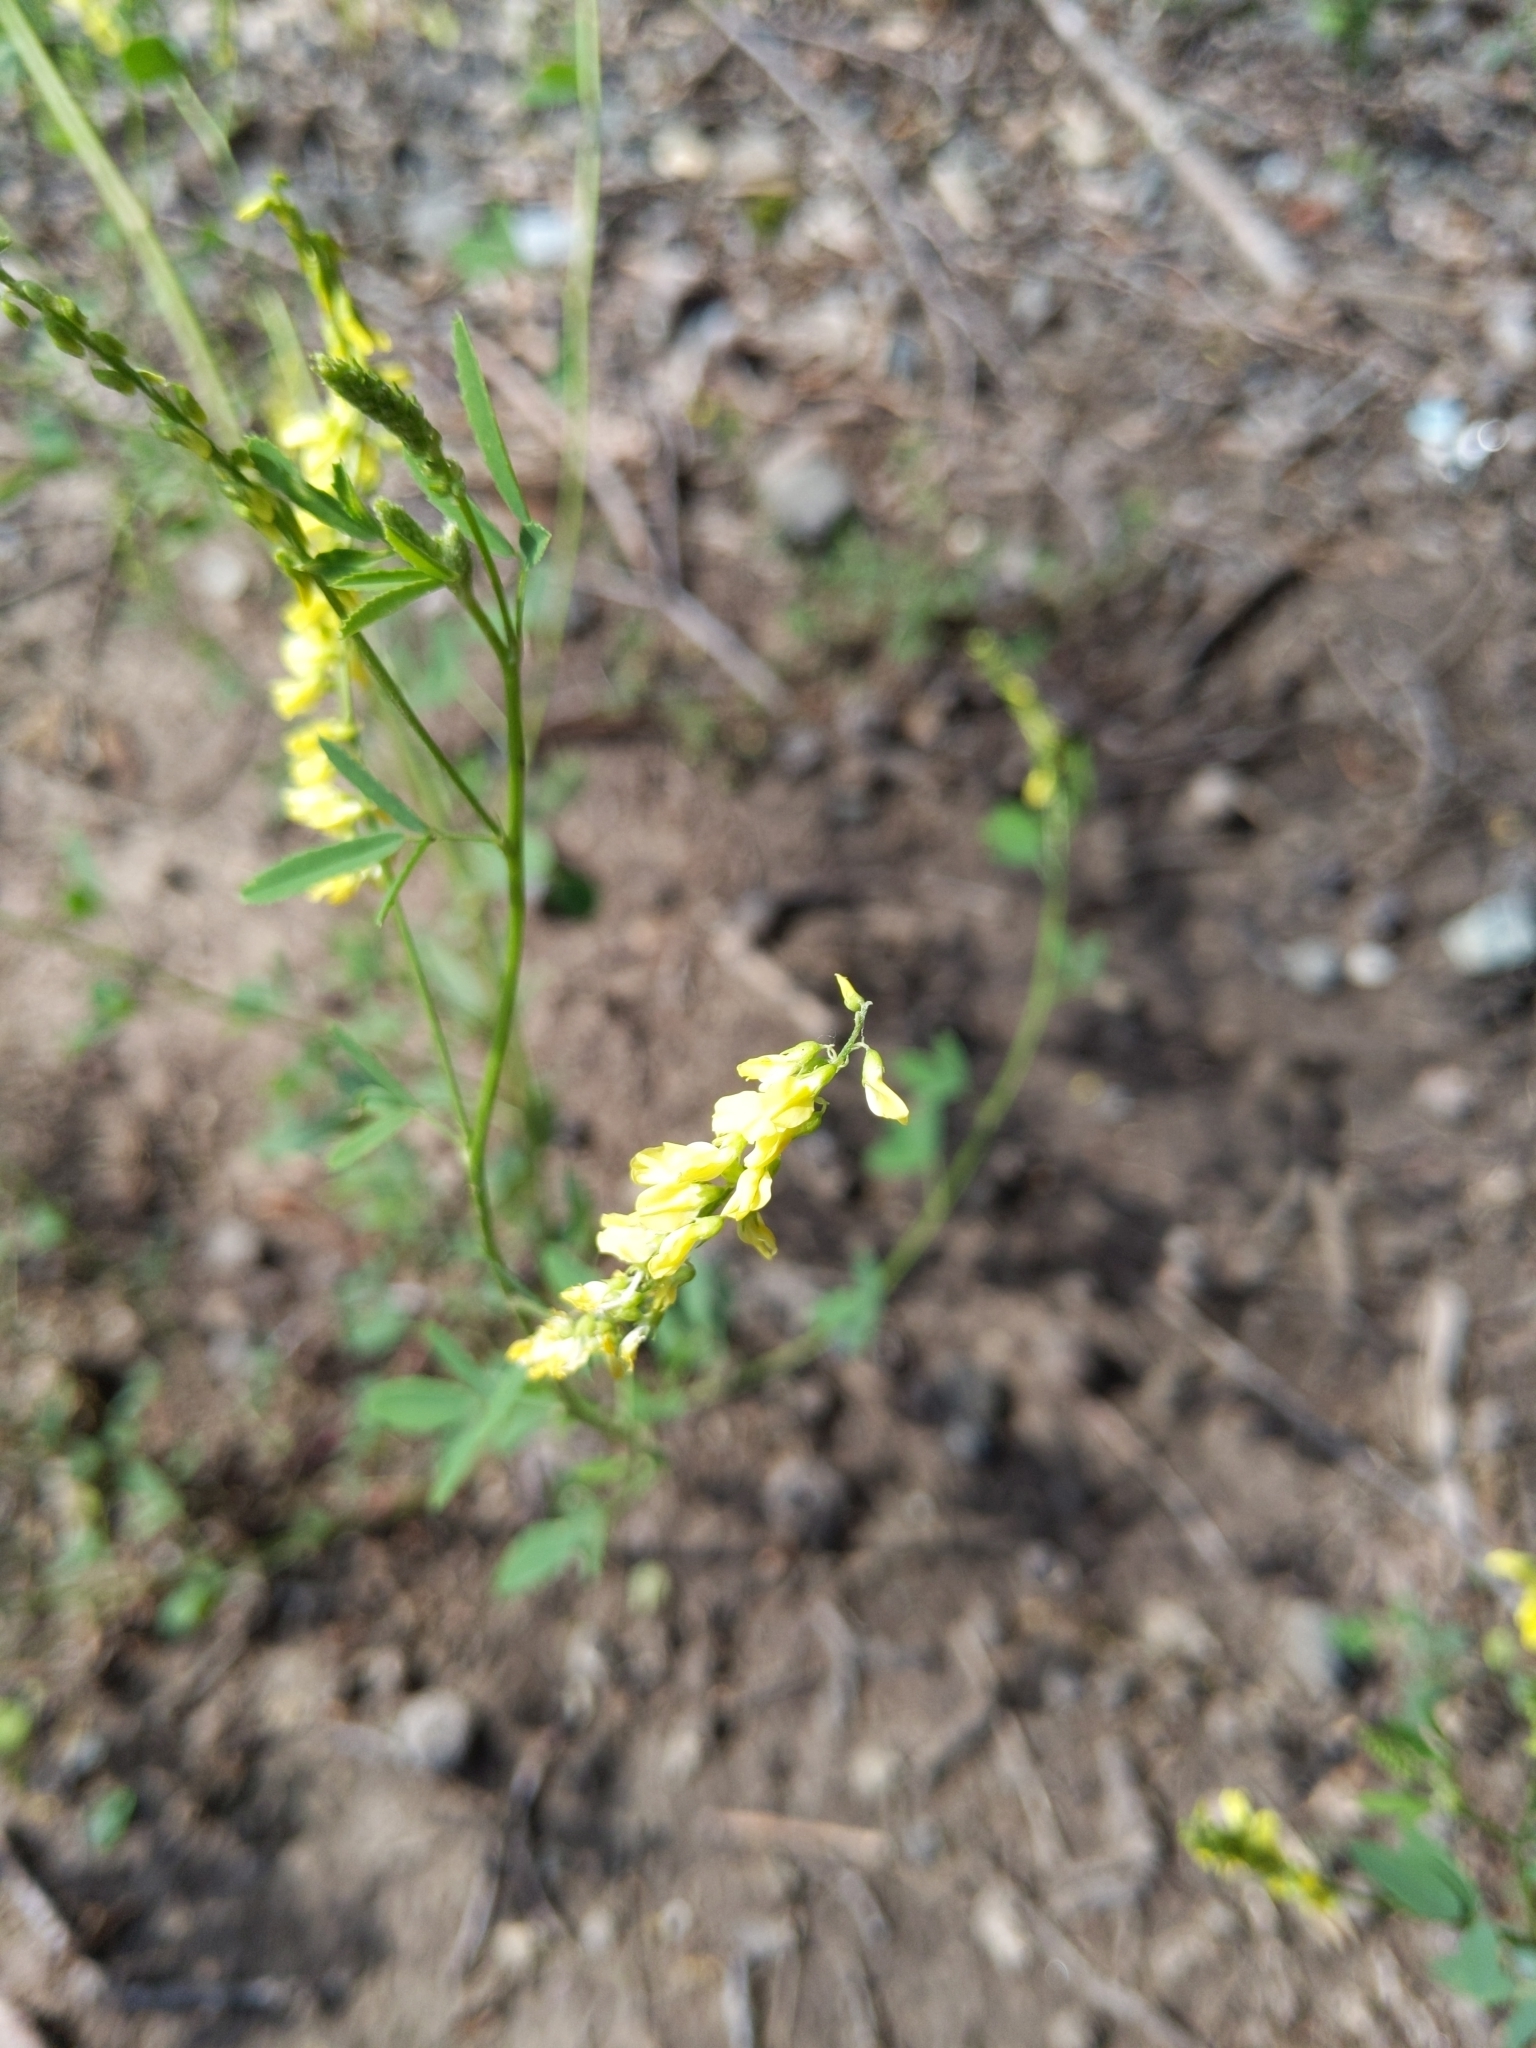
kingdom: Plantae
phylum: Tracheophyta
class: Magnoliopsida
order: Fabales
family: Fabaceae
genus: Melilotus
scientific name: Melilotus officinalis
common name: Sweetclover
